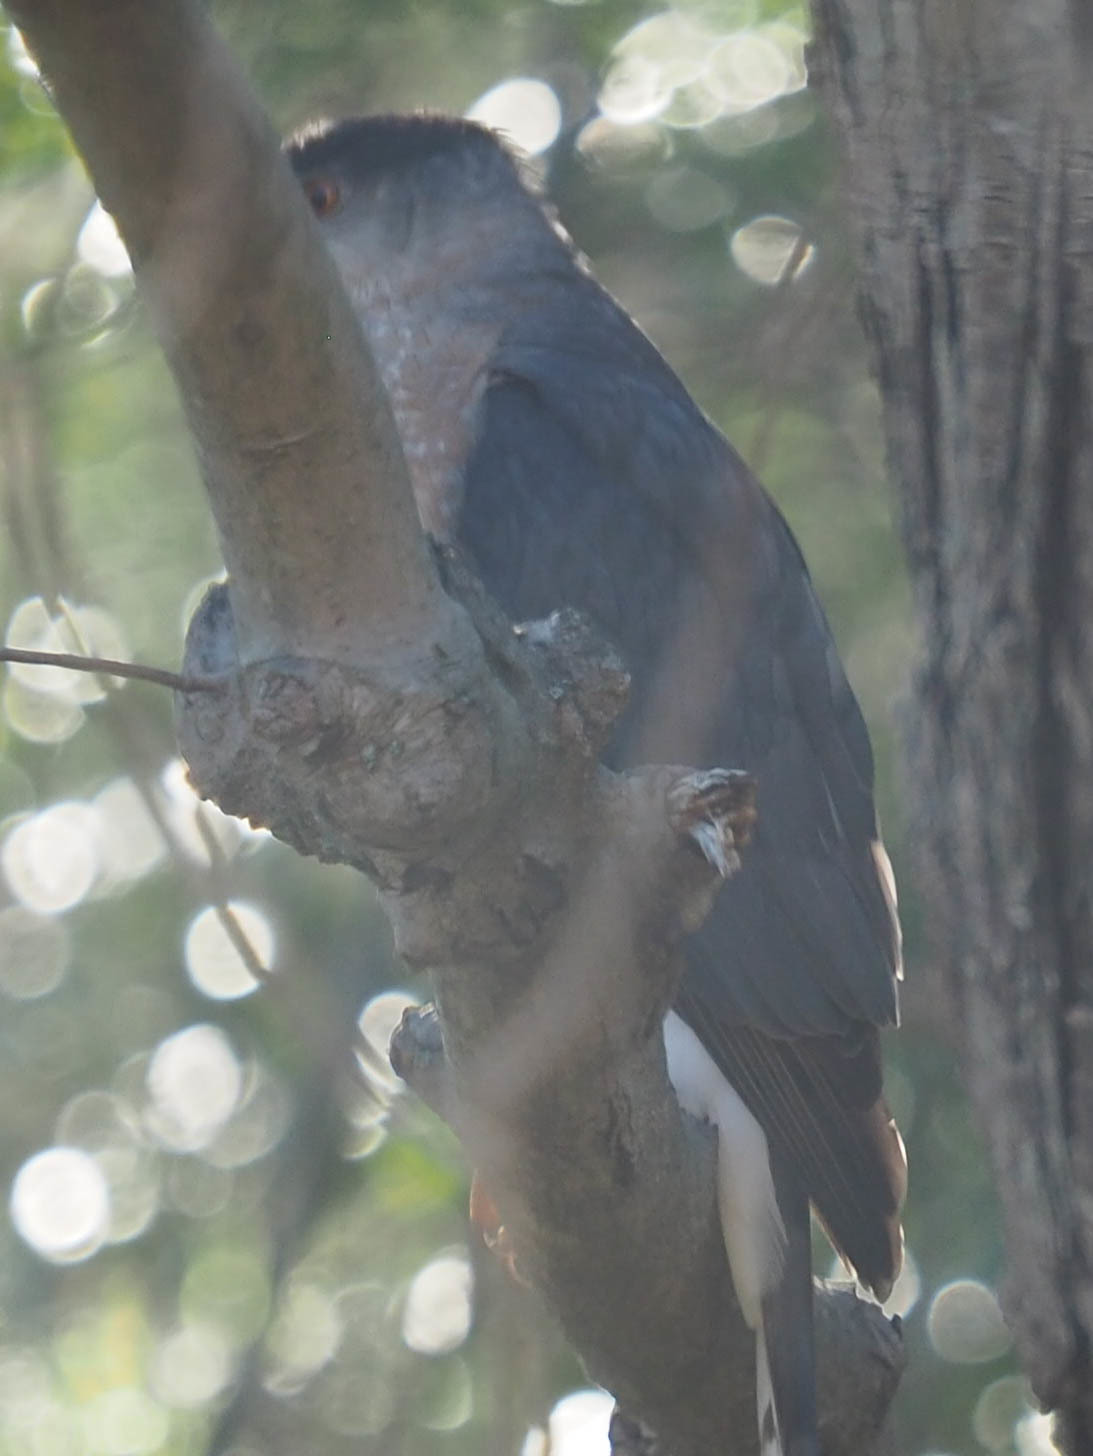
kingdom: Animalia
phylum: Chordata
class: Aves
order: Accipitriformes
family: Accipitridae
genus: Accipiter
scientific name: Accipiter cooperii
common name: Cooper's hawk
